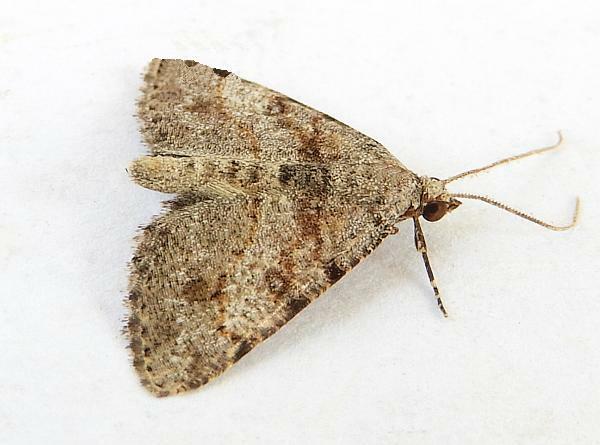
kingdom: Animalia
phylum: Arthropoda
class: Insecta
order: Lepidoptera
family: Geometridae
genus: Digrammia
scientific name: Digrammia gnophosaria
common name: Hollow-spotted angle
